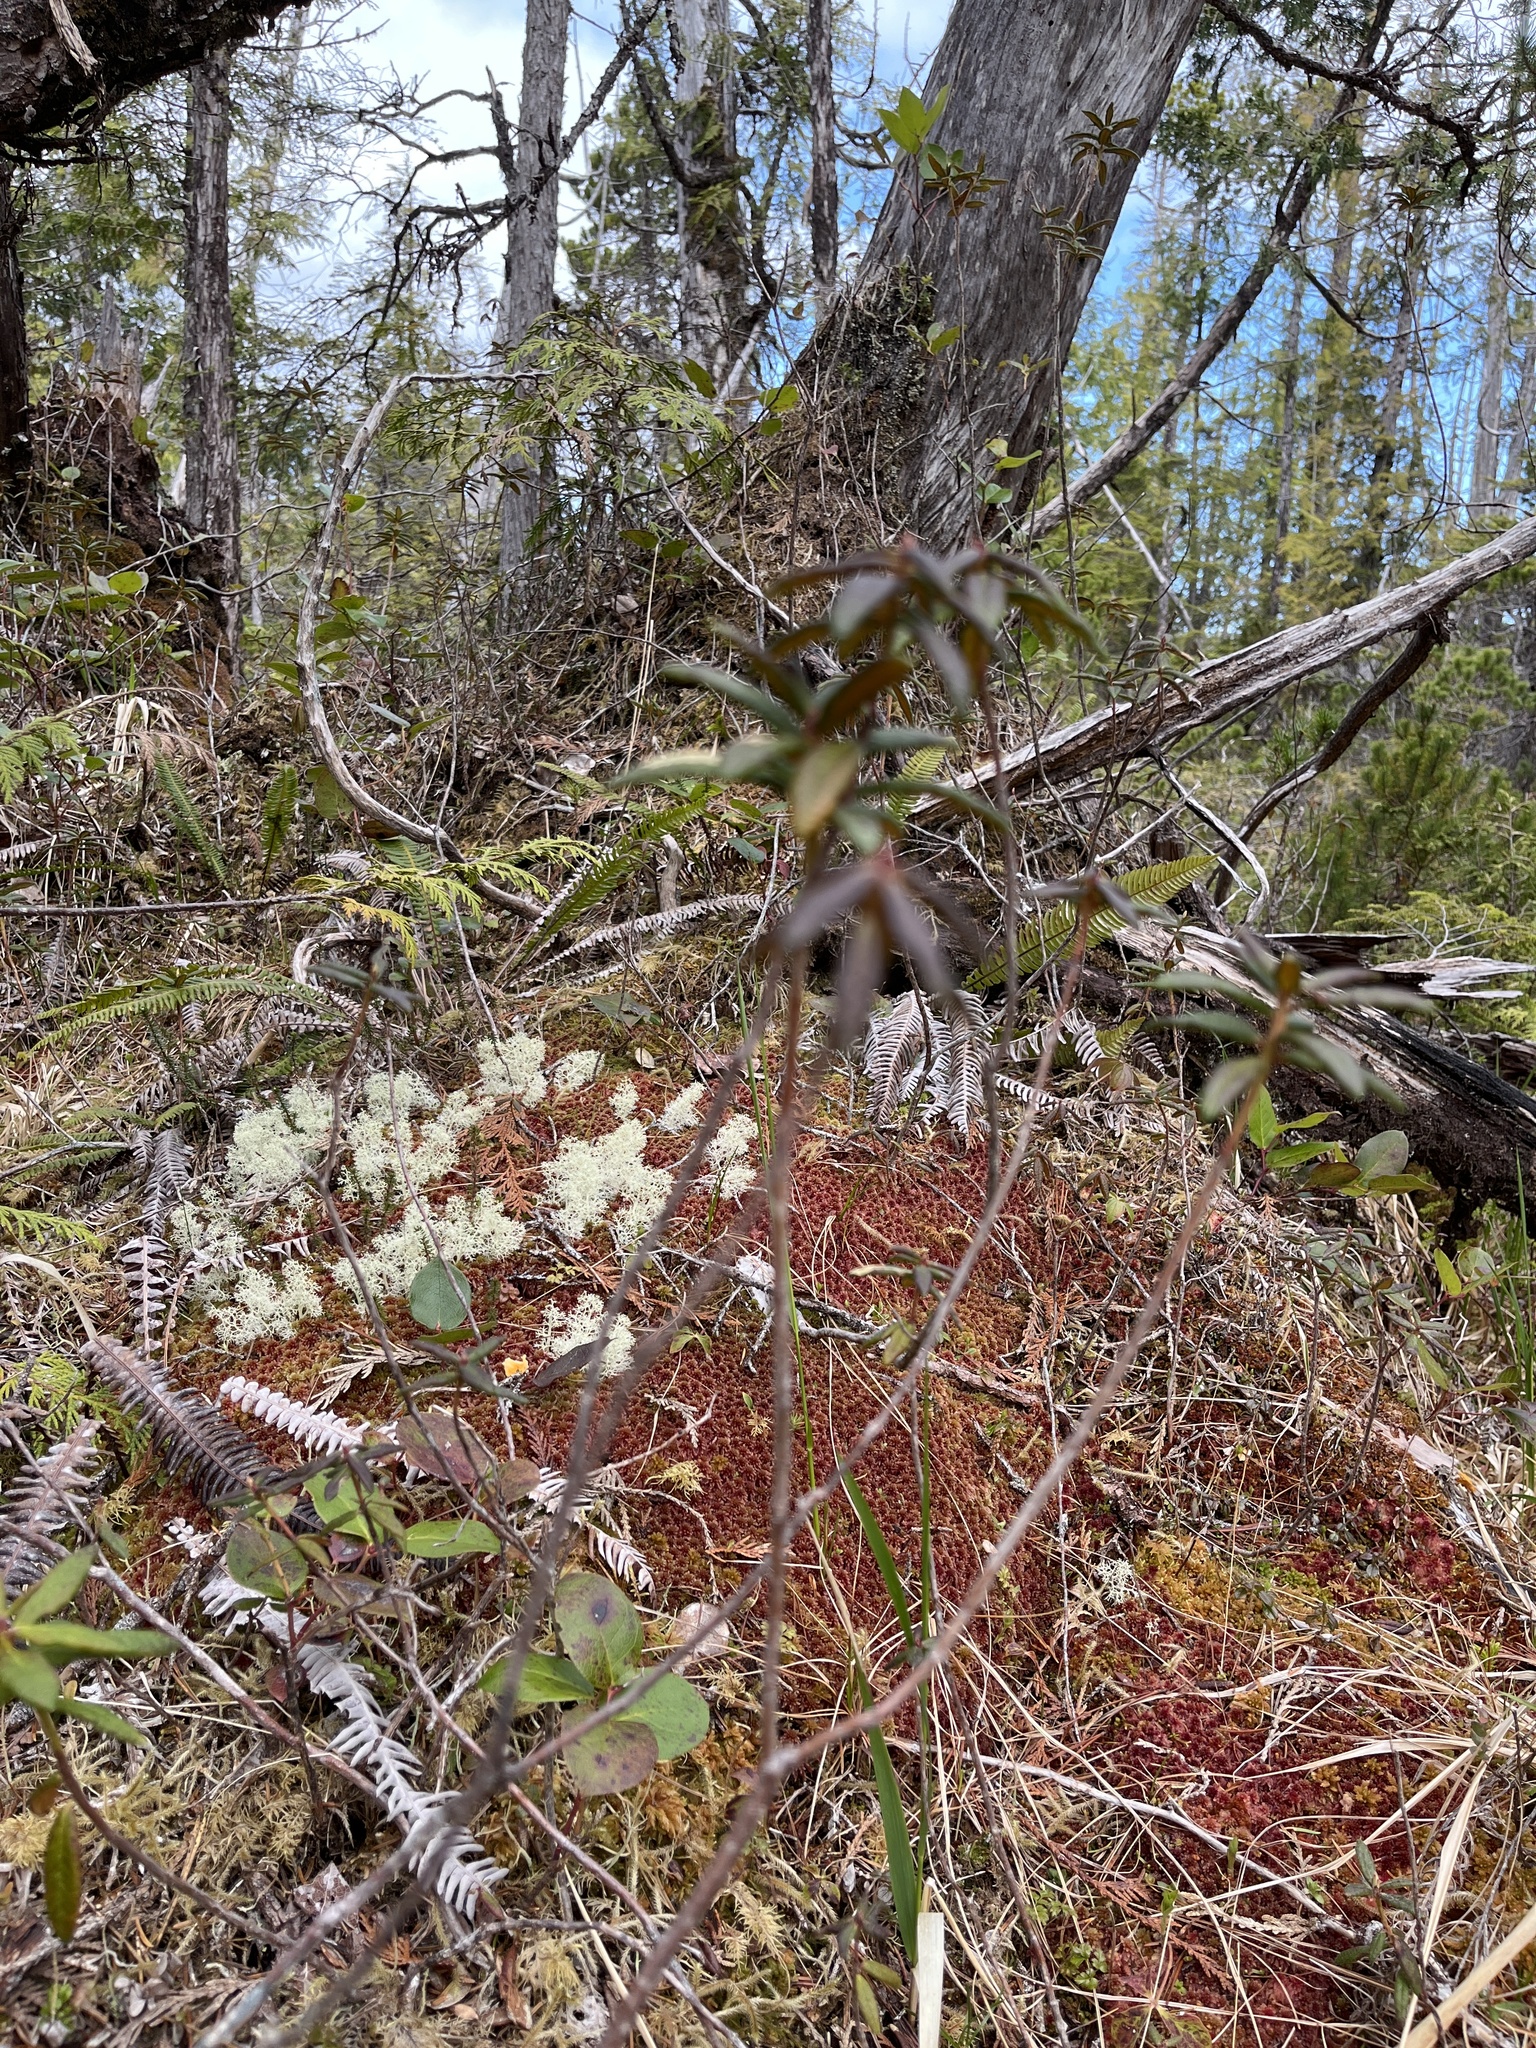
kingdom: Plantae
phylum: Tracheophyta
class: Magnoliopsida
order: Ericales
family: Ericaceae
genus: Rhododendron
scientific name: Rhododendron groenlandicum
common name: Bog labrador tea
